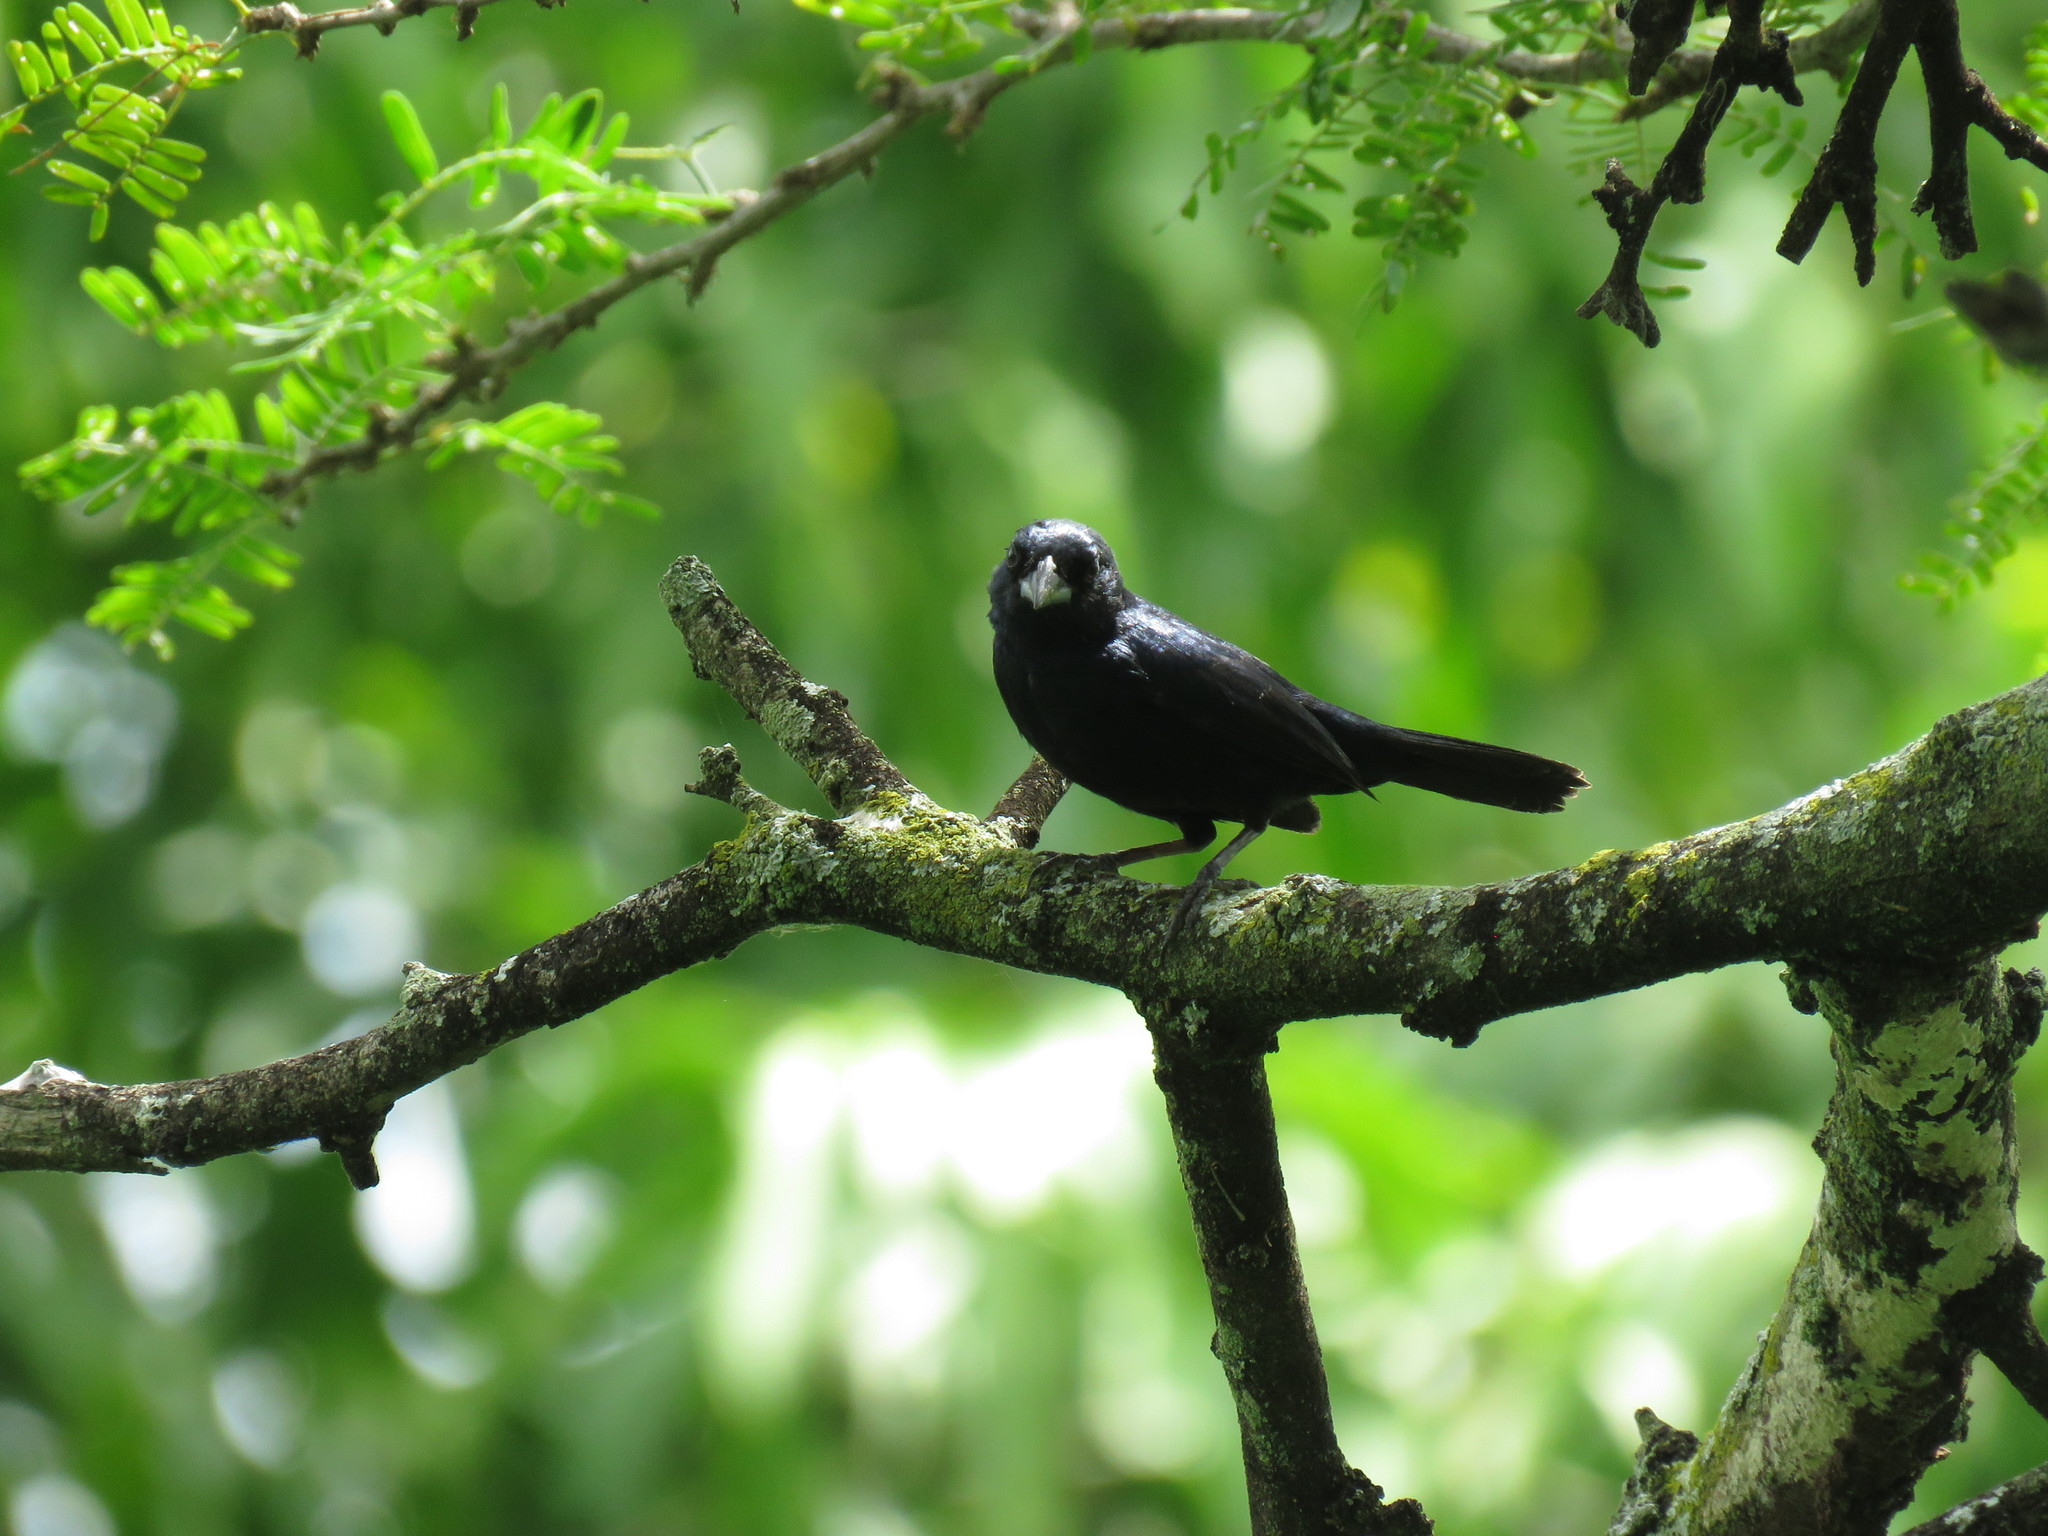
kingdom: Animalia
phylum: Chordata
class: Aves
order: Passeriformes
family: Thraupidae
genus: Volatinia
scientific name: Volatinia jacarina
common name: Blue-black grassquit
